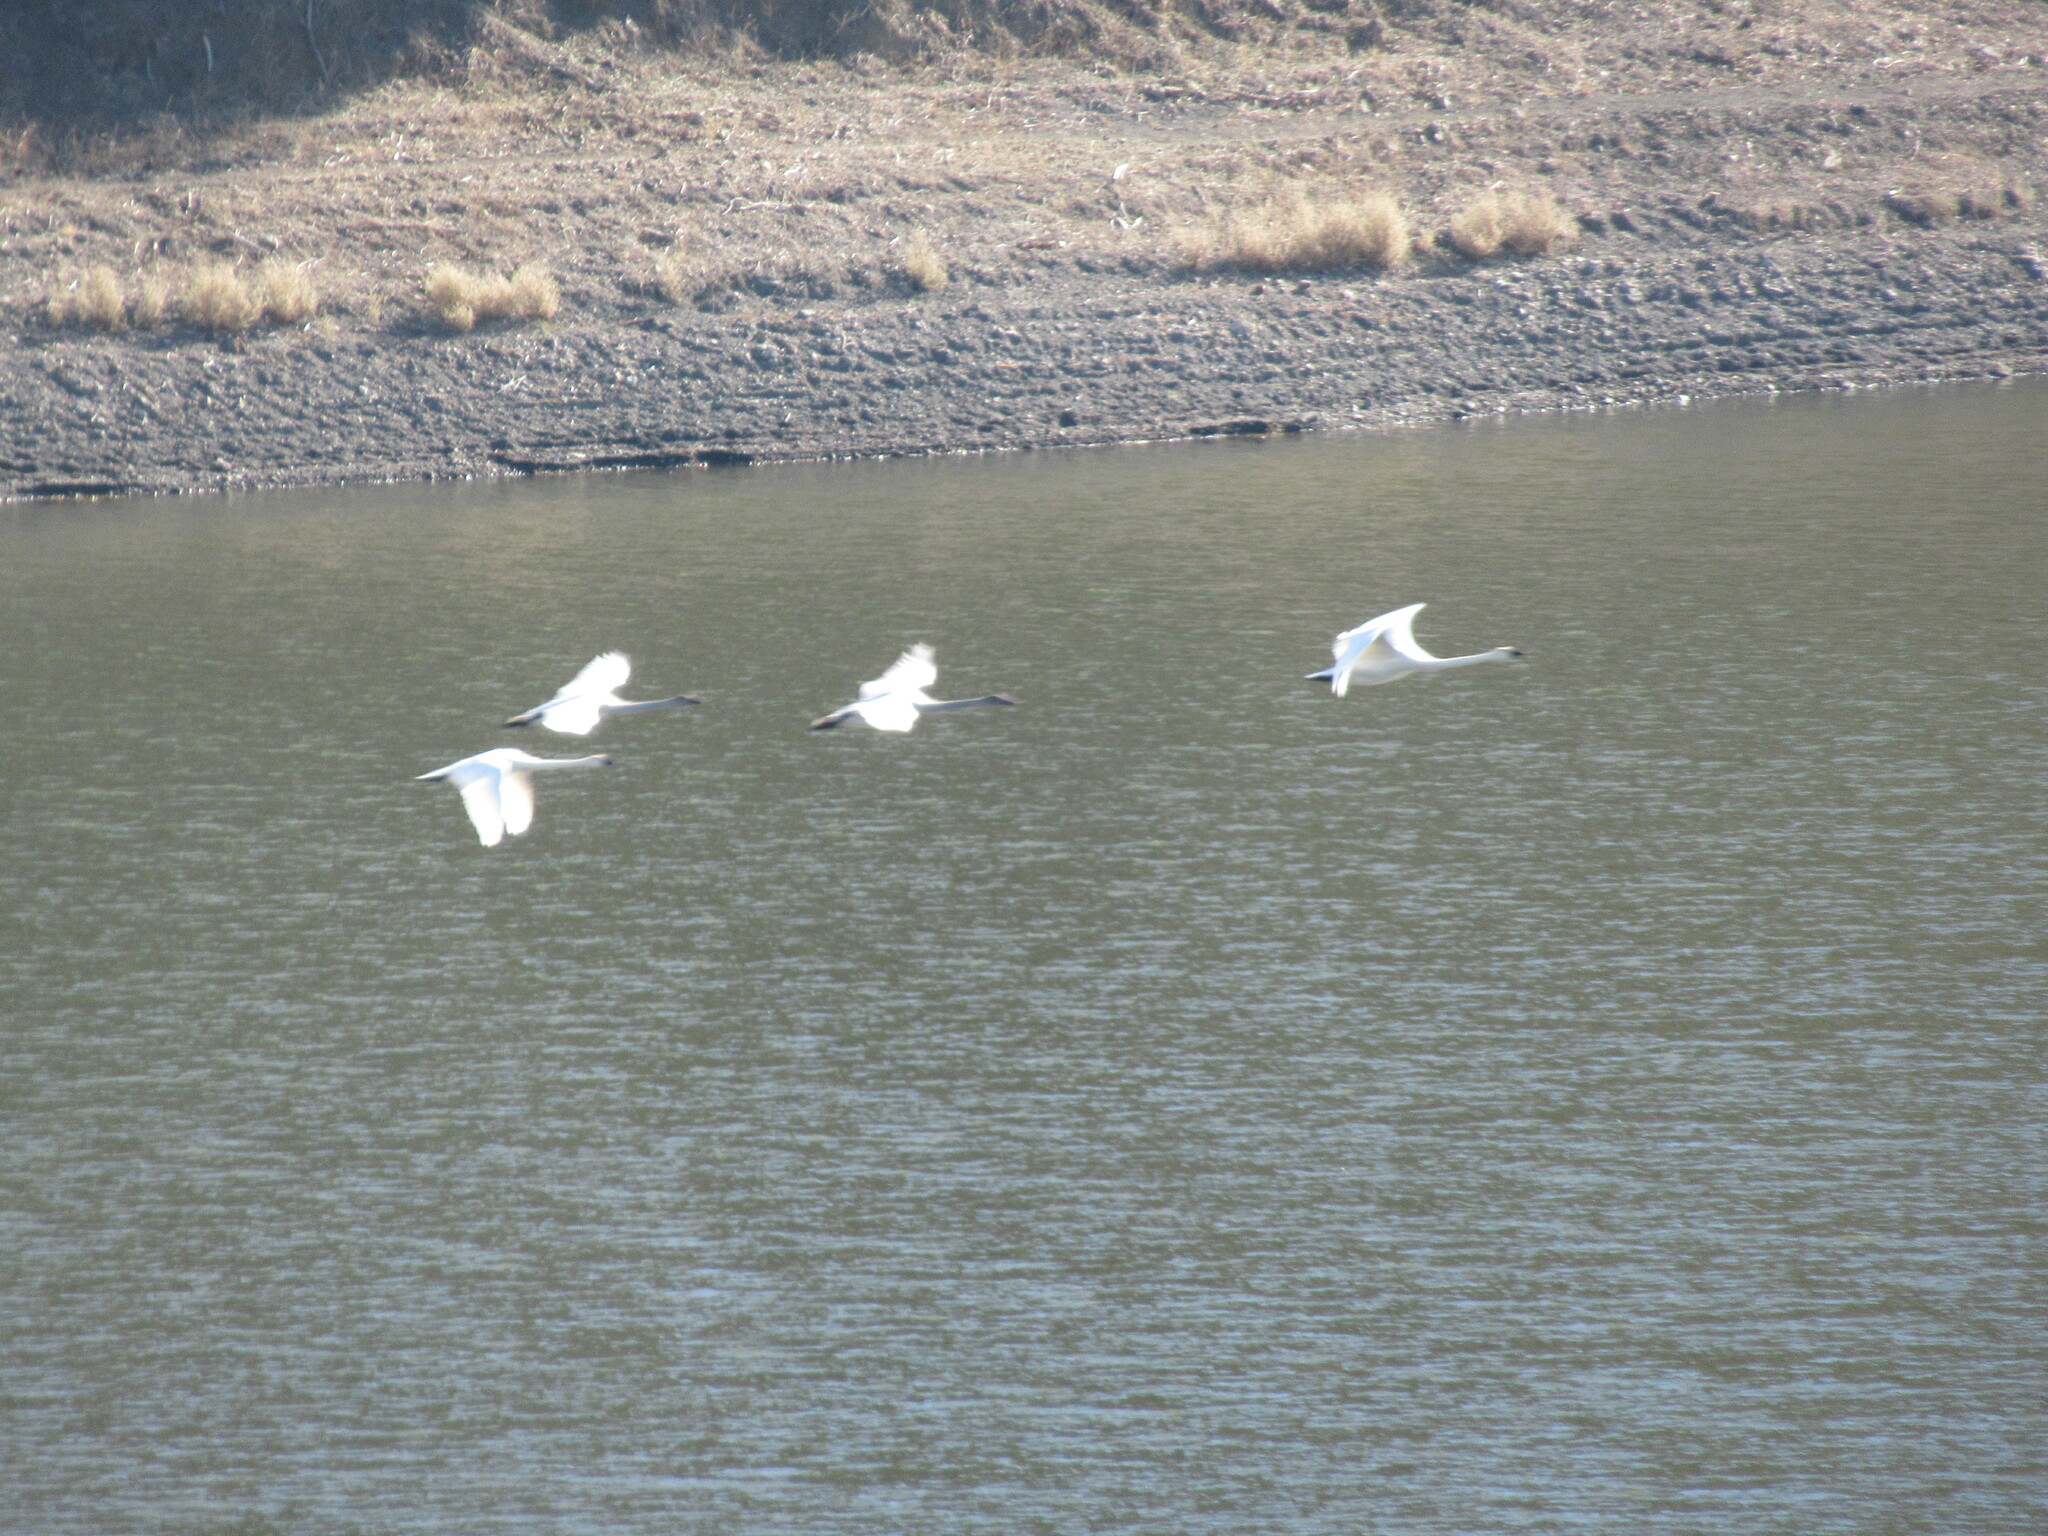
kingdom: Animalia
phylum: Chordata
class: Aves
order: Anseriformes
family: Anatidae
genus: Cygnus
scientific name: Cygnus columbianus
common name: Tundra swan
